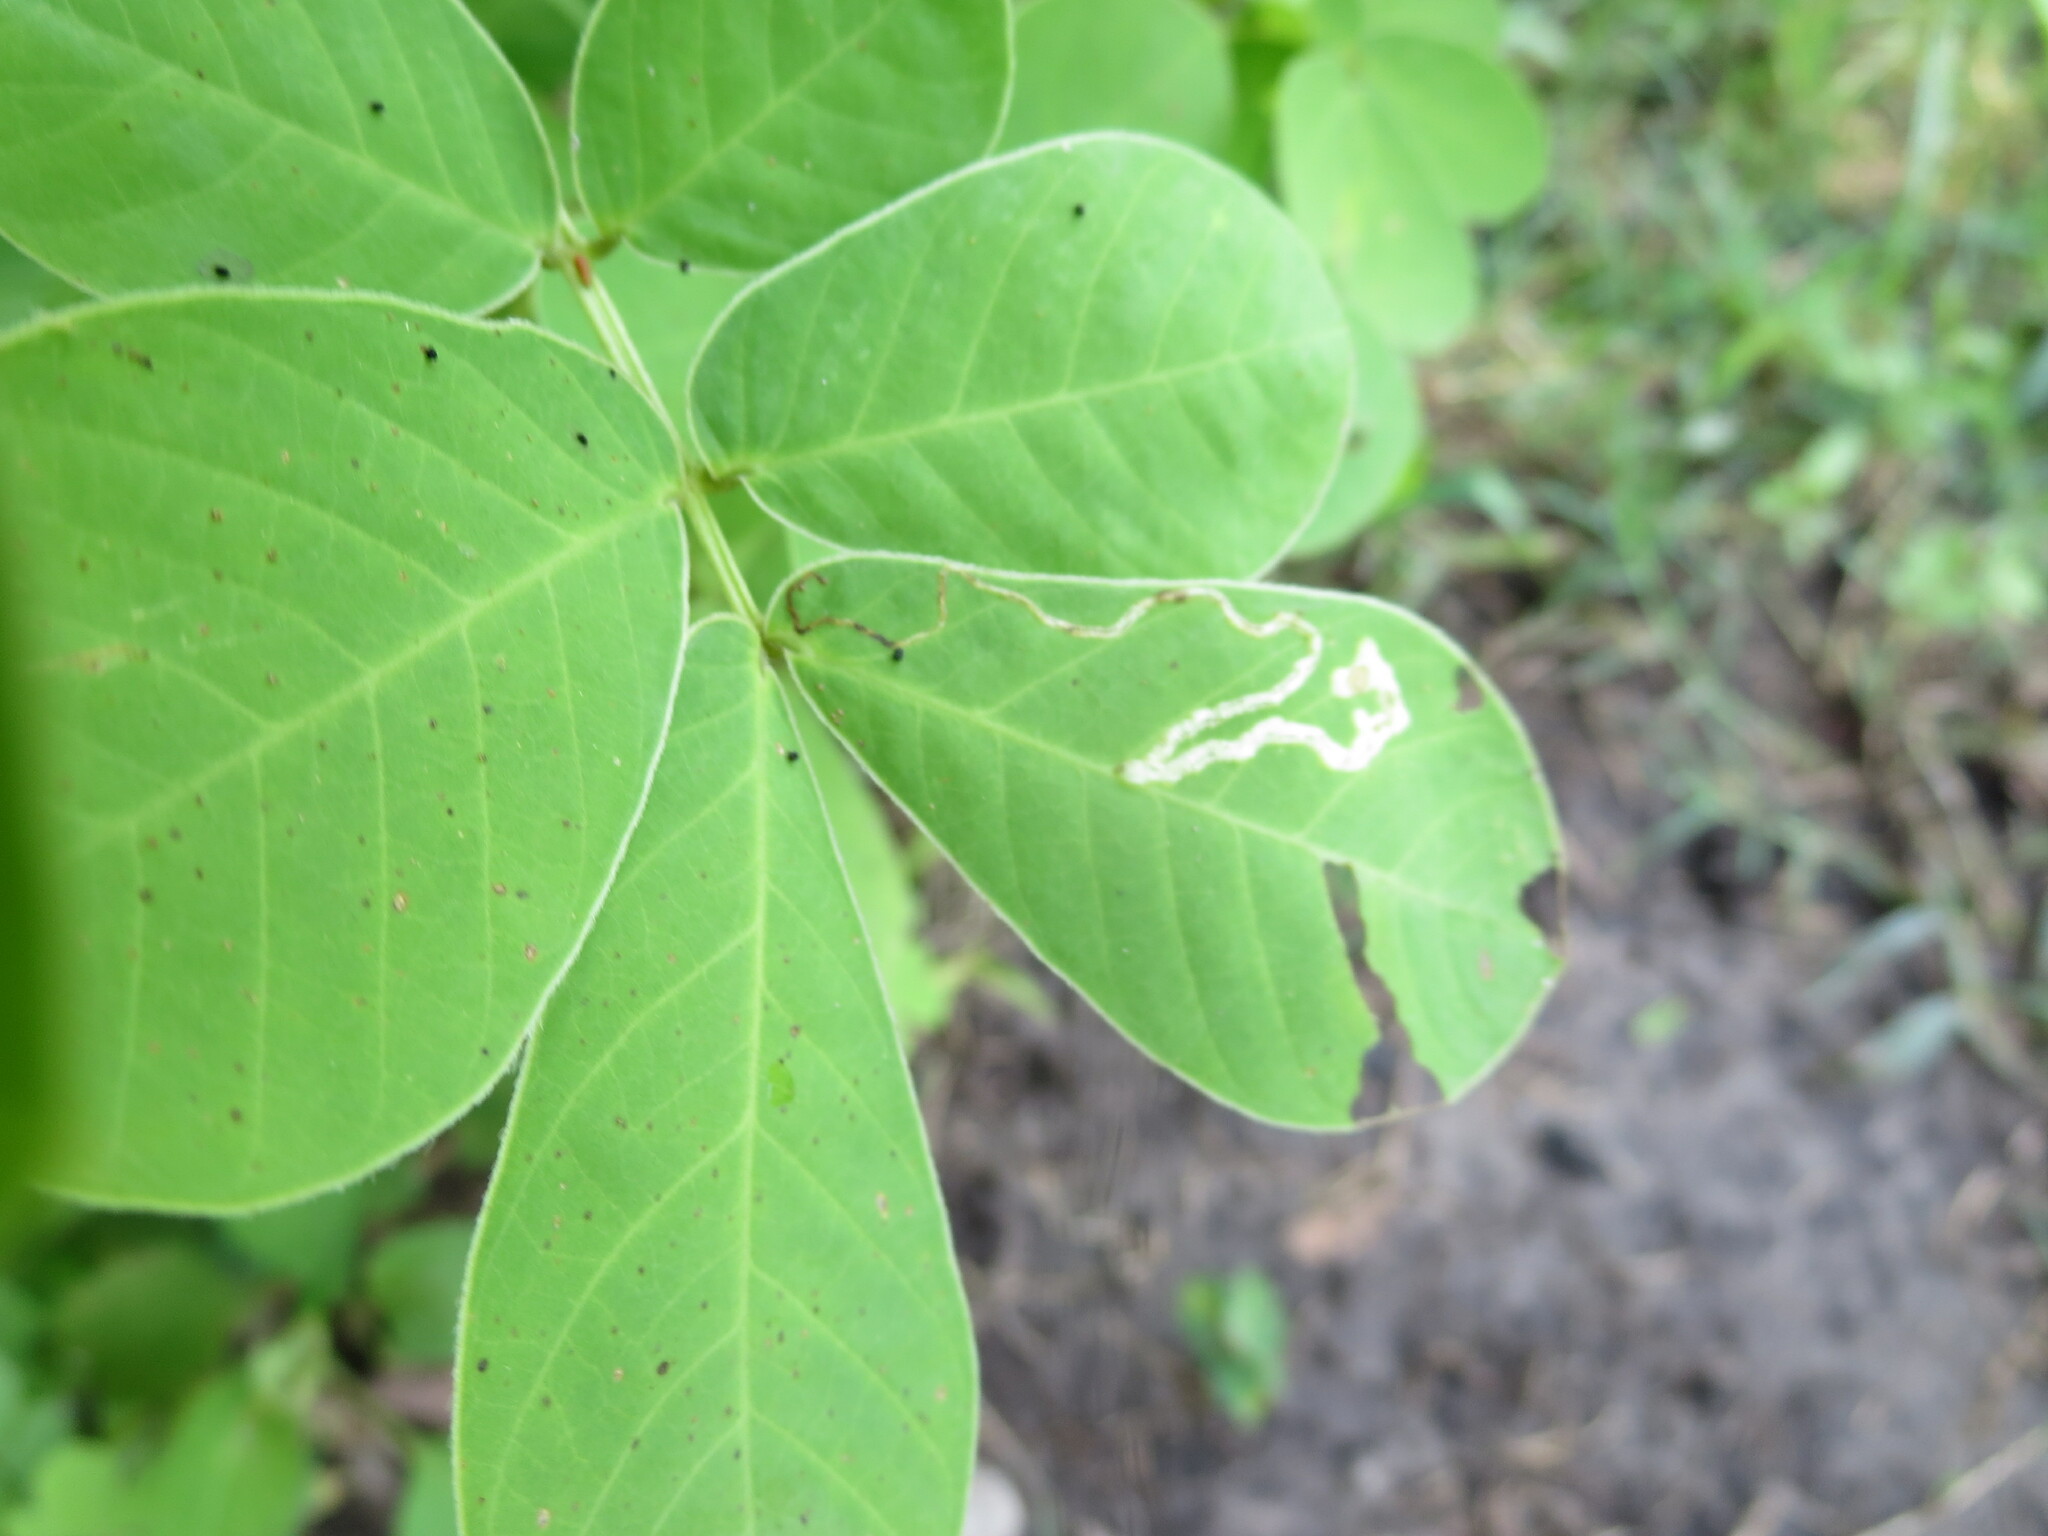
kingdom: Plantae
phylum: Tracheophyta
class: Magnoliopsida
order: Fabales
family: Fabaceae
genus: Senna
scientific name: Senna obtusifolia
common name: Java-bean
